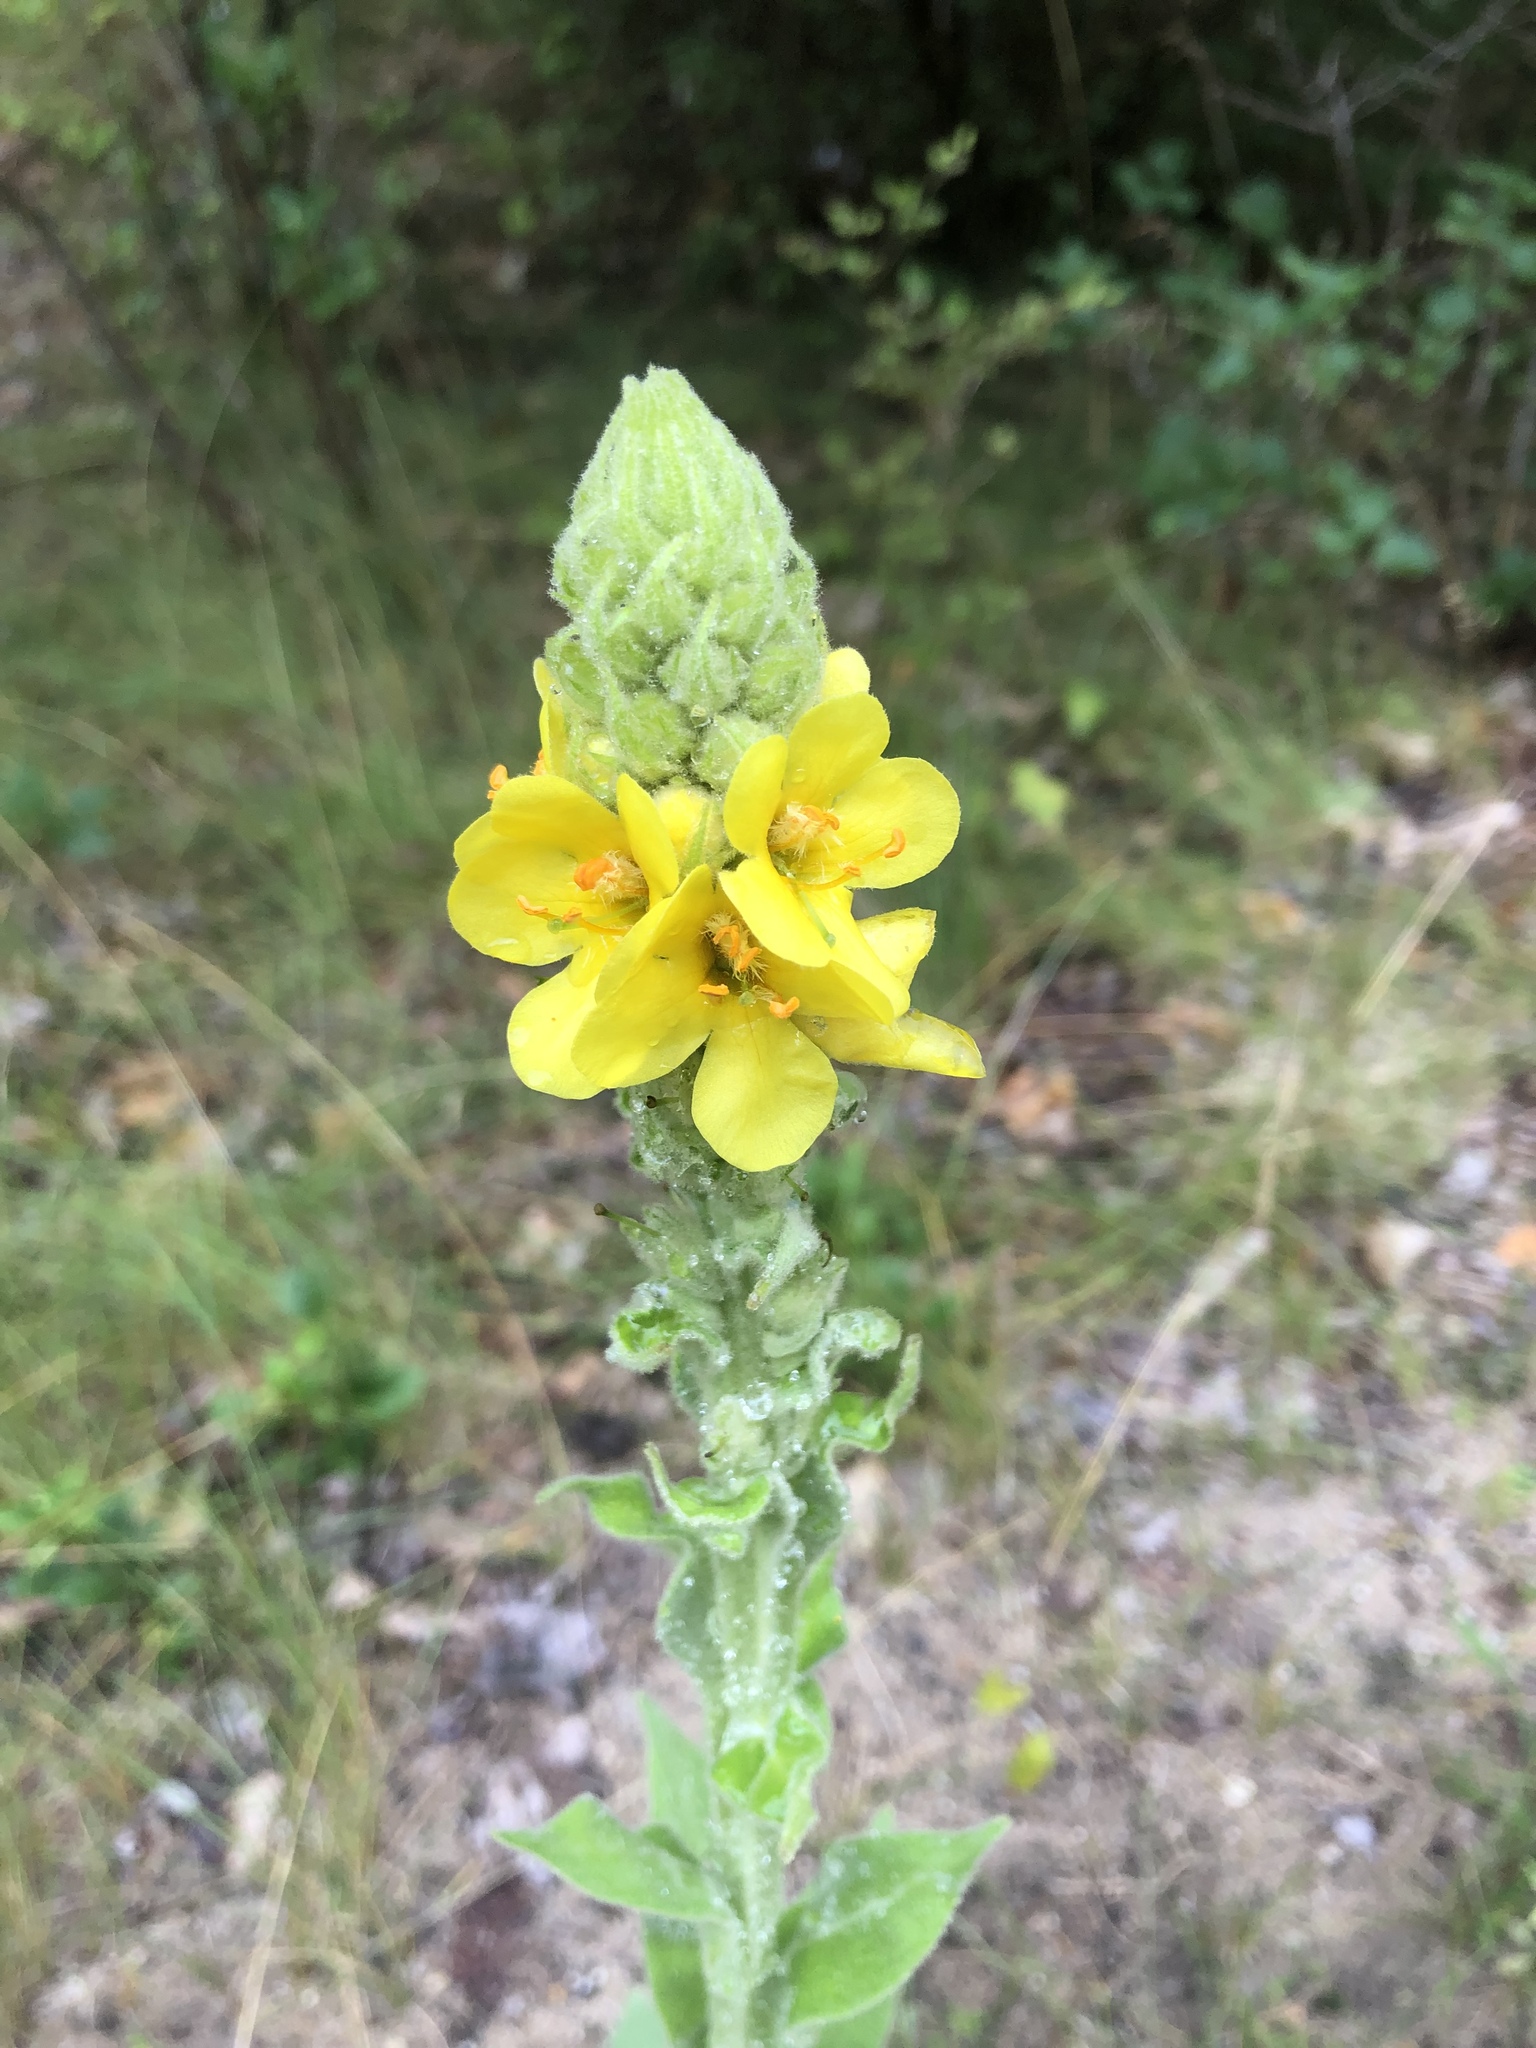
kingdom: Plantae
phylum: Tracheophyta
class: Magnoliopsida
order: Lamiales
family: Scrophulariaceae
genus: Verbascum
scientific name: Verbascum thapsus
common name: Common mullein
